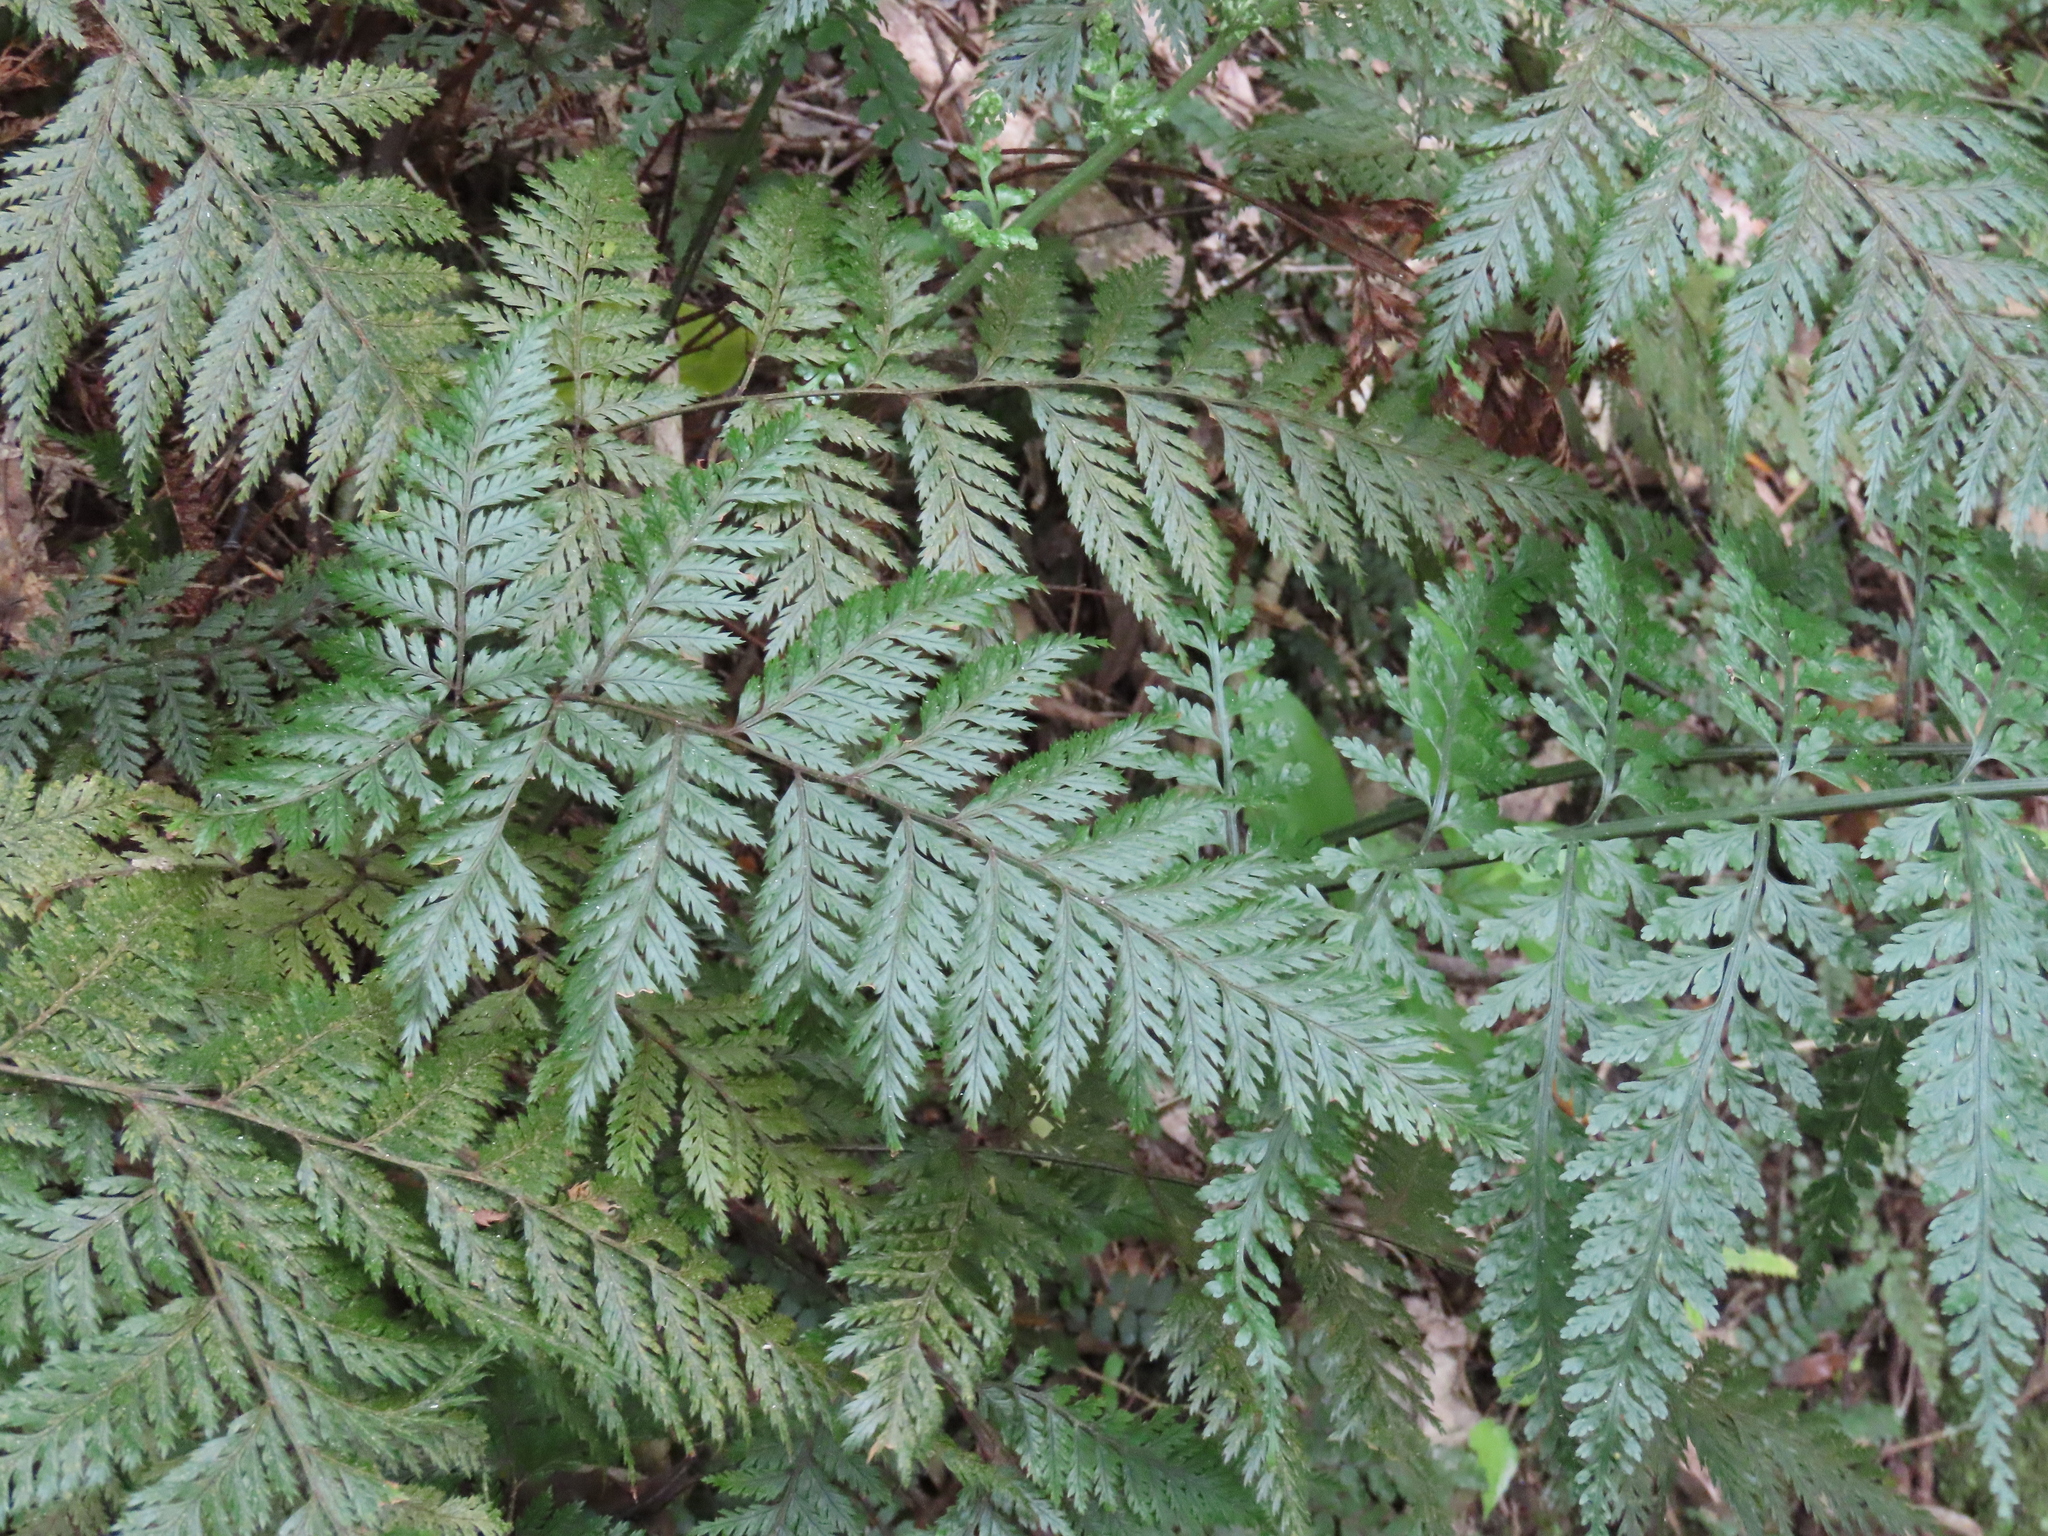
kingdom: Plantae
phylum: Tracheophyta
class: Polypodiopsida
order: Polypodiales
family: Dryopteridaceae
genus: Lastreopsis
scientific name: Lastreopsis hispida
